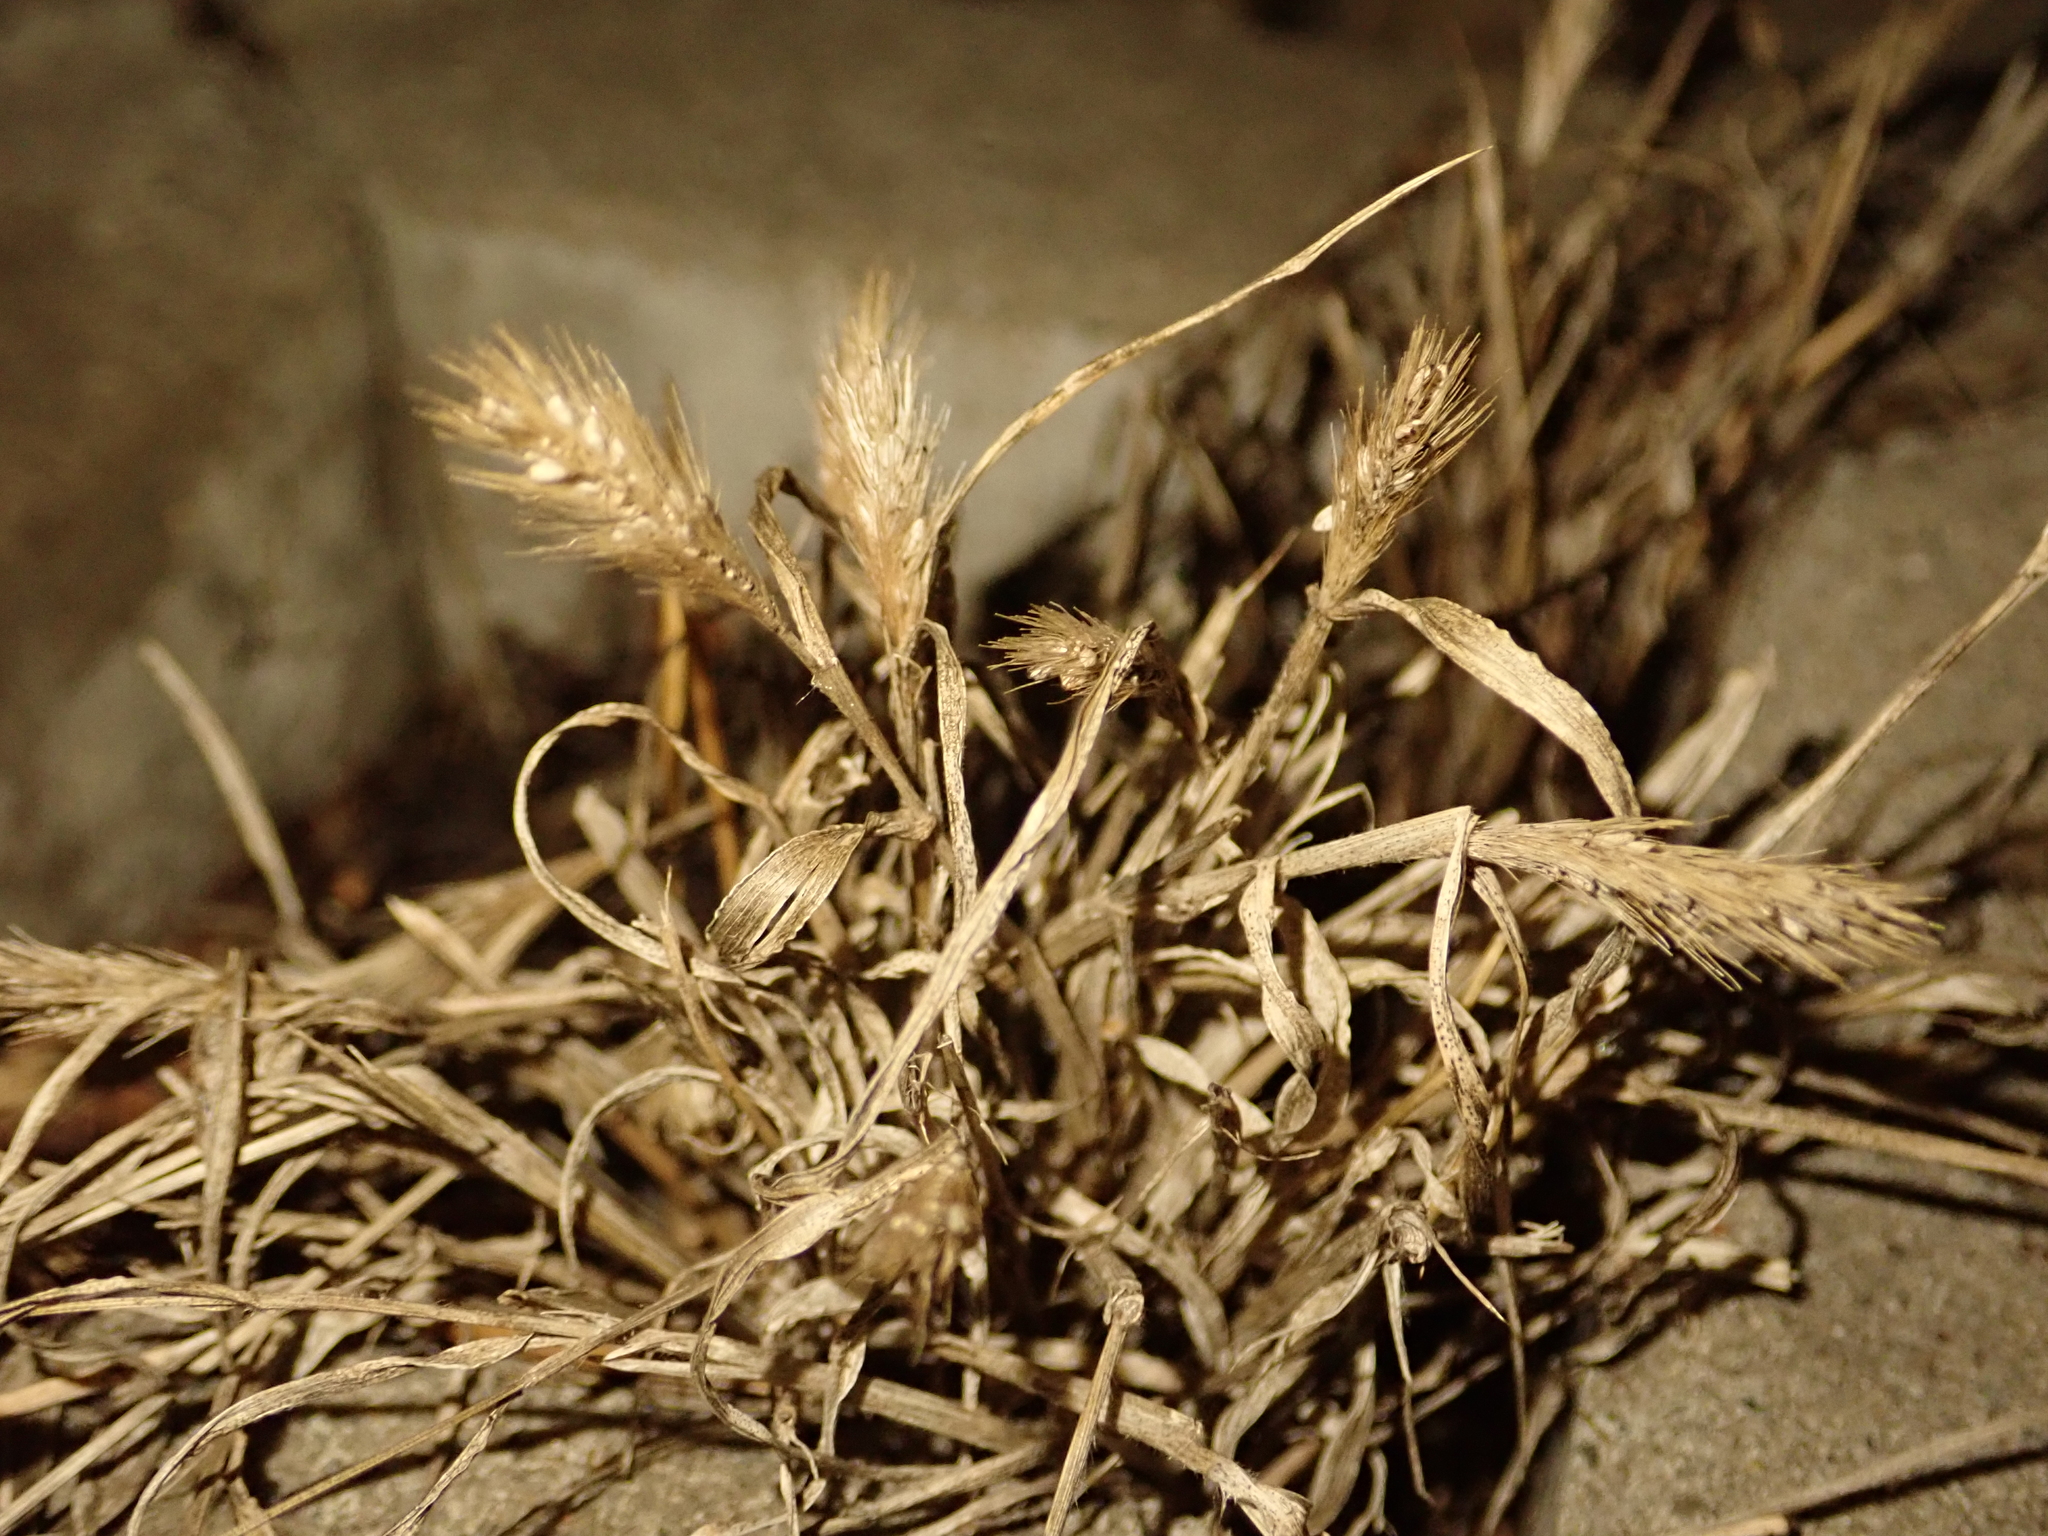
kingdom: Plantae
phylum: Tracheophyta
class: Liliopsida
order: Poales
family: Poaceae
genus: Setaria
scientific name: Setaria viridis
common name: Green bristlegrass
